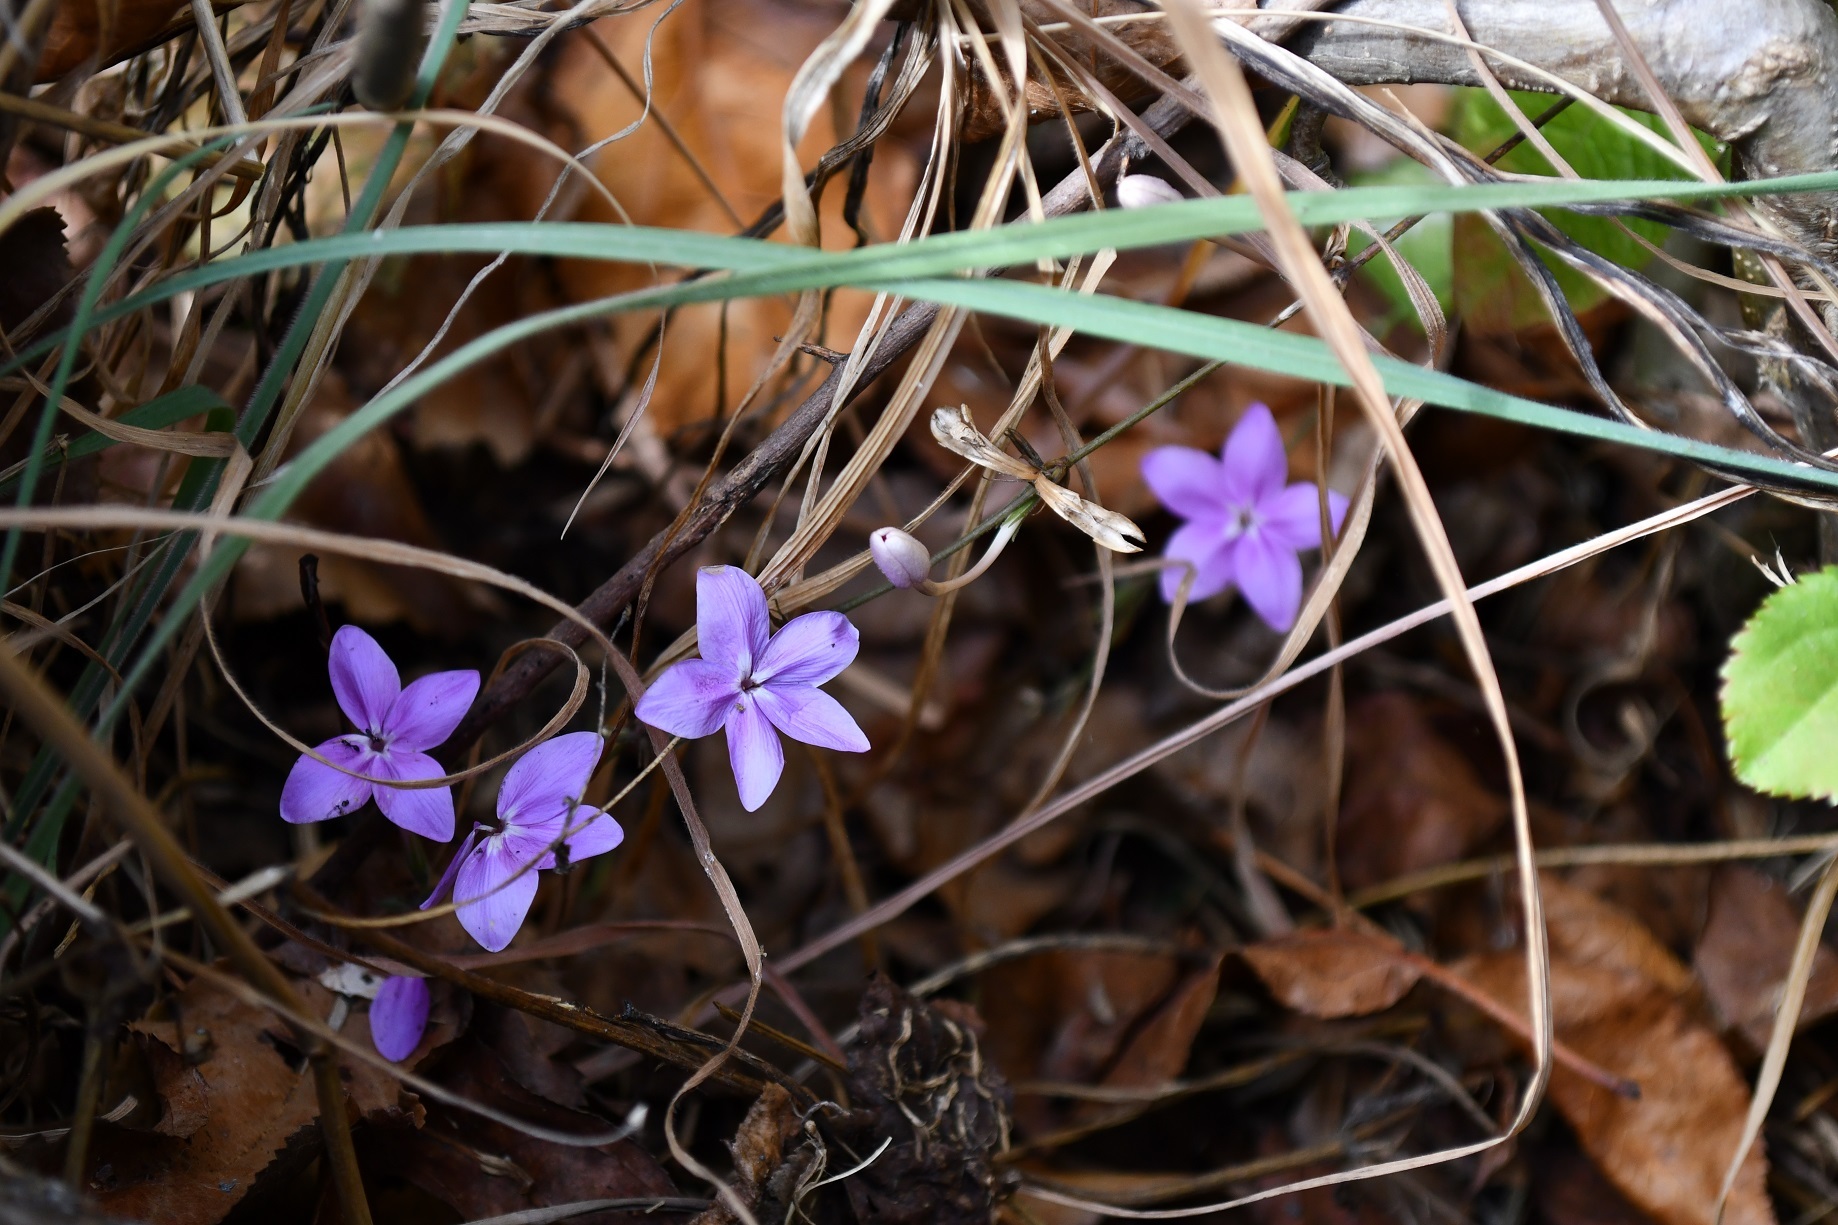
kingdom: Plantae
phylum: Tracheophyta
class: Magnoliopsida
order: Lamiales
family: Acanthaceae
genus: Pseuderanthemum
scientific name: Pseuderanthemum praecox
